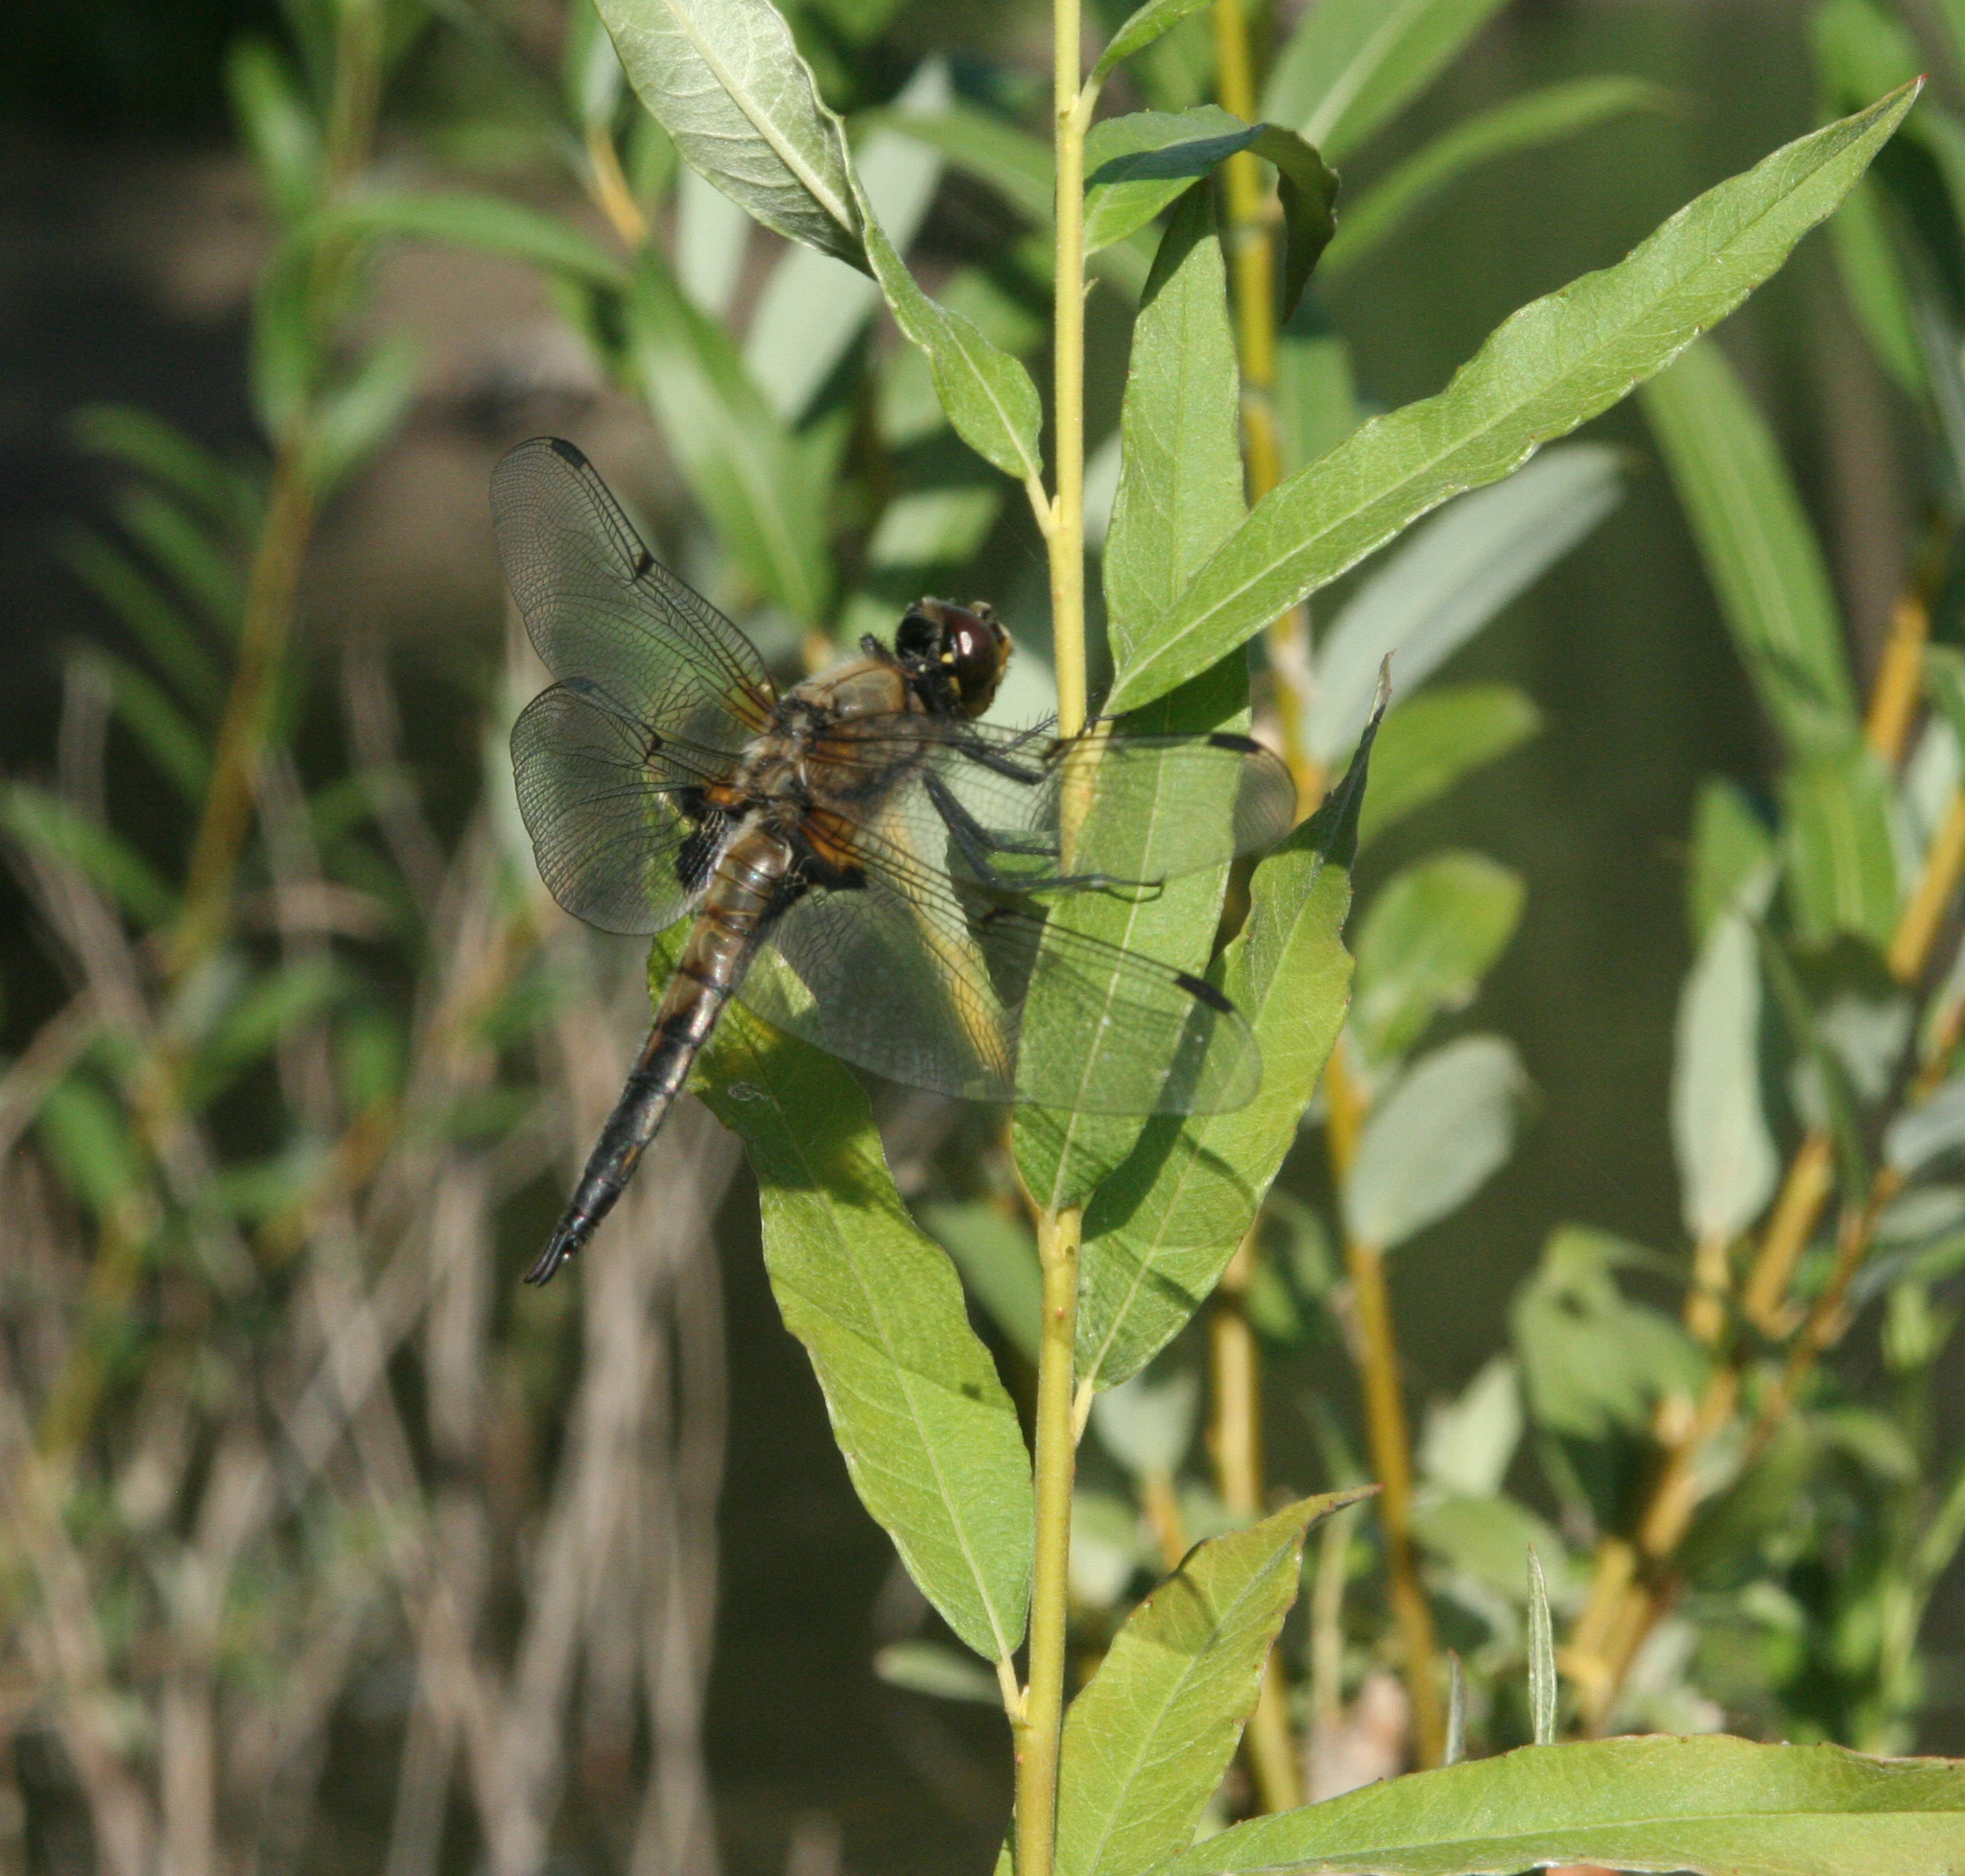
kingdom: Animalia
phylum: Arthropoda
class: Insecta
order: Odonata
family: Libellulidae
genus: Libellula
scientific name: Libellula quadrimaculata
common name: Four-spotted chaser
